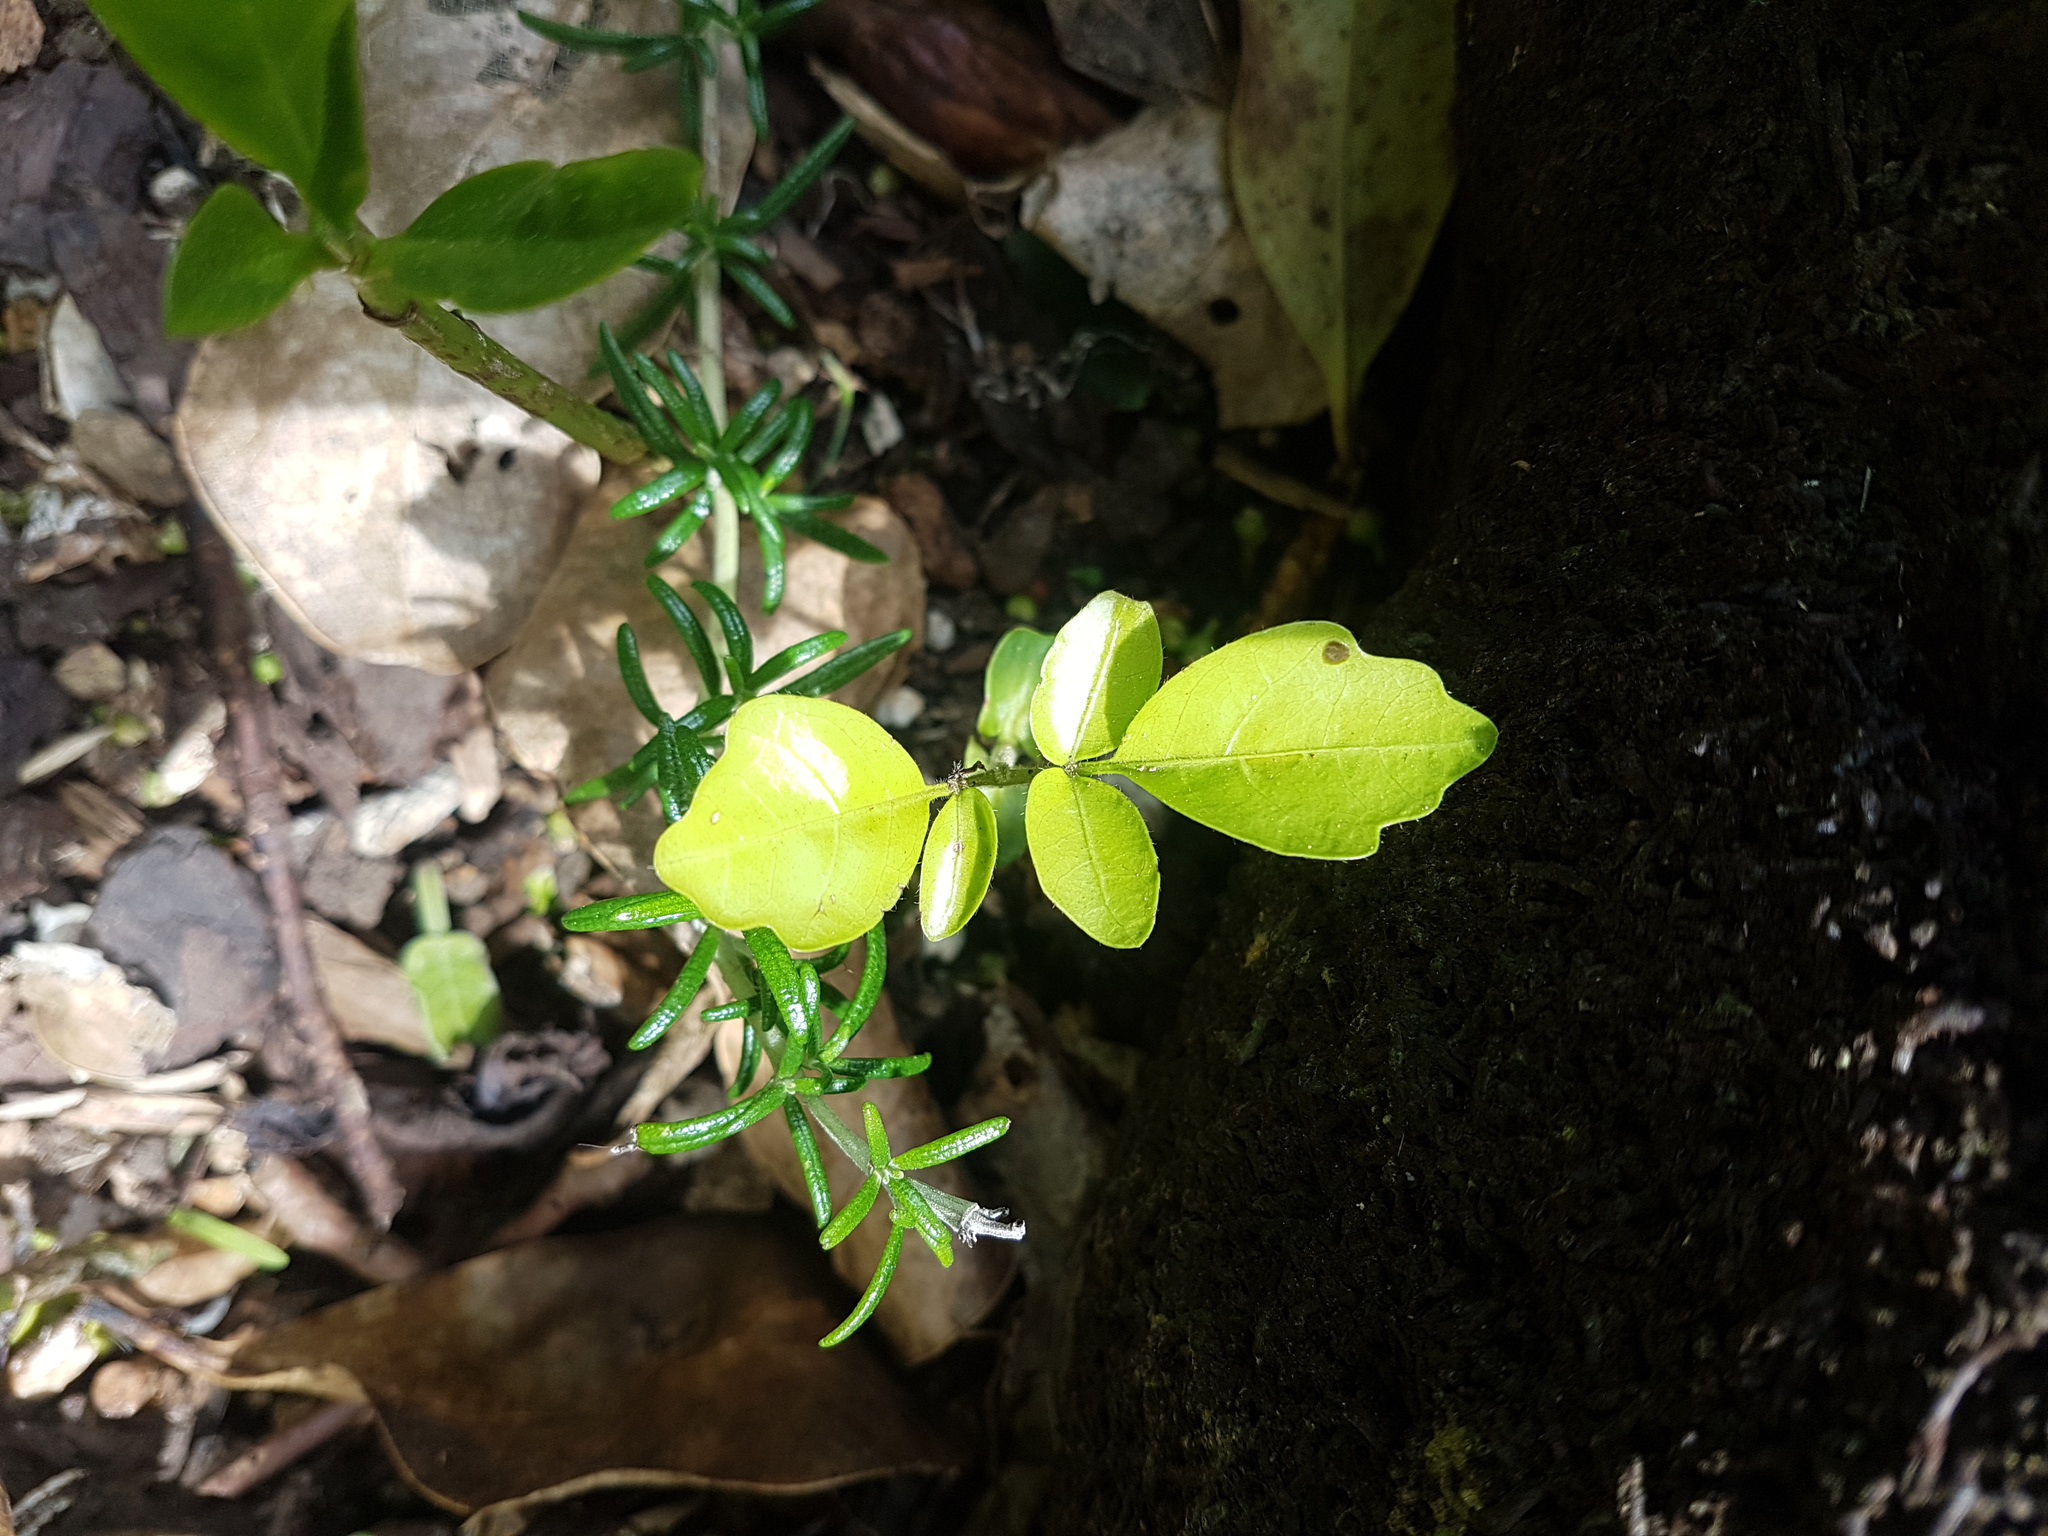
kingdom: Plantae
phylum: Tracheophyta
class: Magnoliopsida
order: Sapindales
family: Meliaceae
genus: Didymocheton
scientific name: Didymocheton spectabilis
